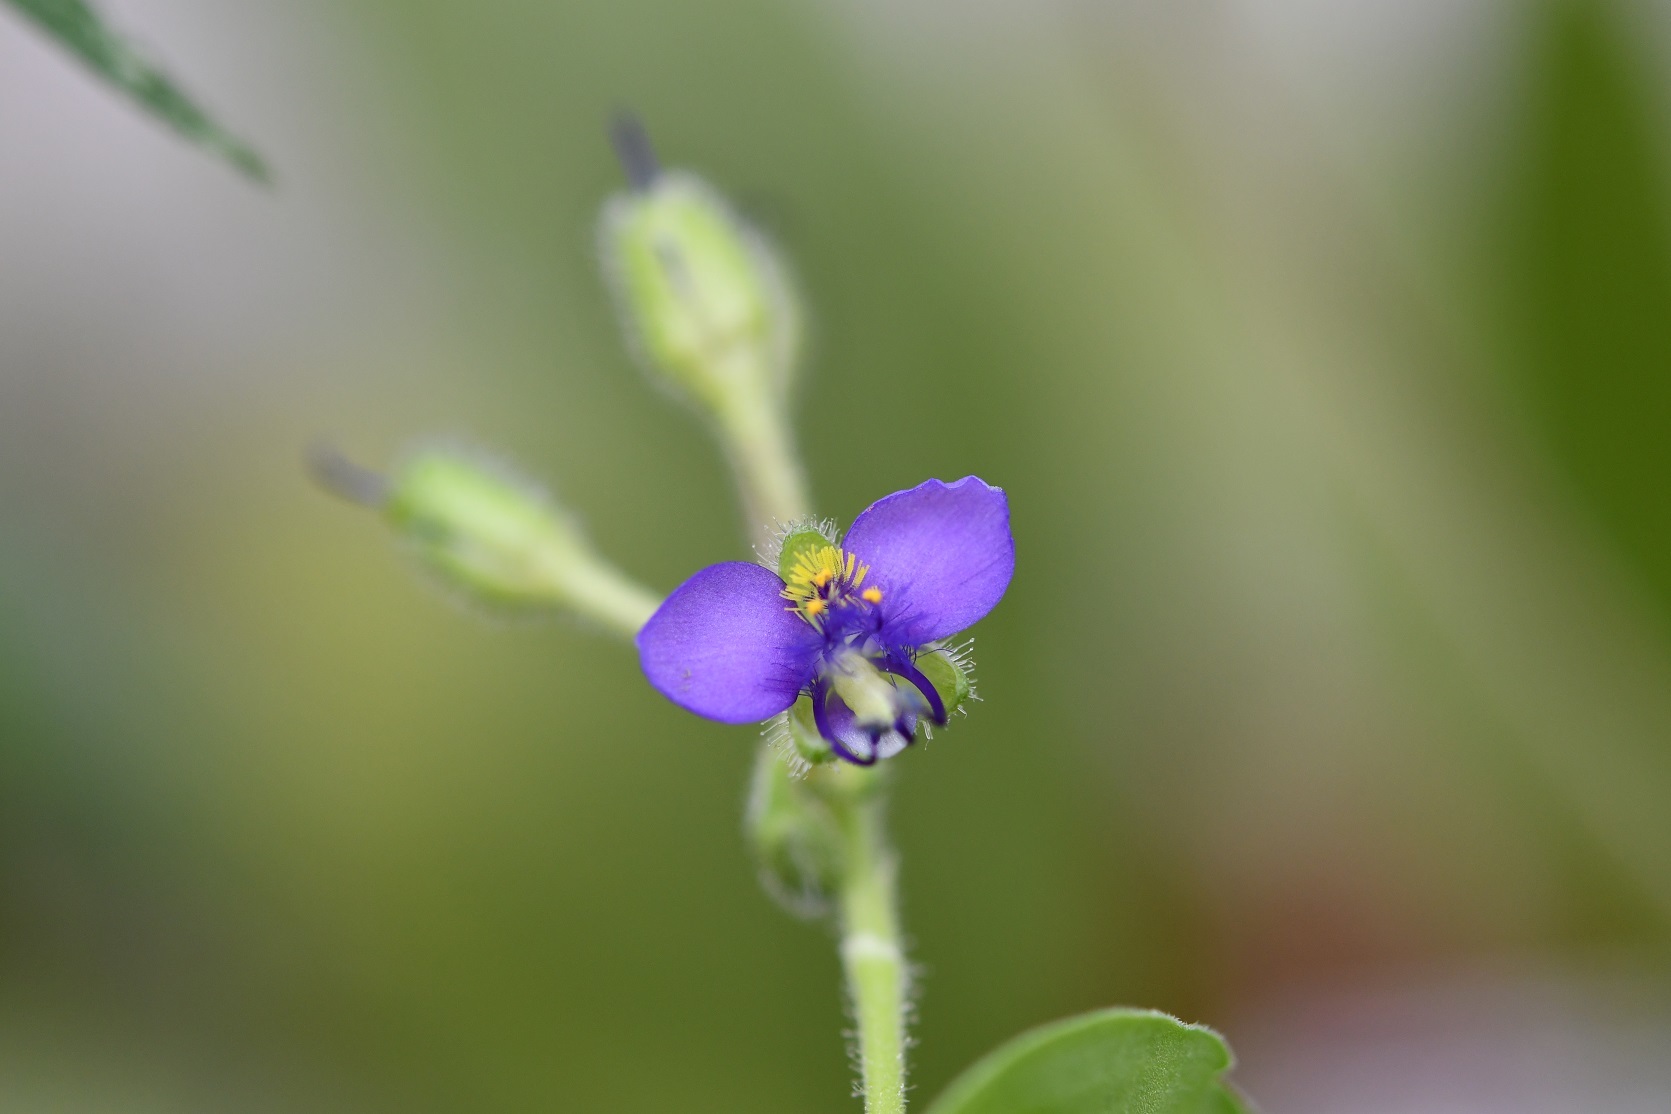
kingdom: Plantae
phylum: Tracheophyta
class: Liliopsida
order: Commelinales
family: Commelinaceae
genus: Tinantia
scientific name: Tinantia erecta
